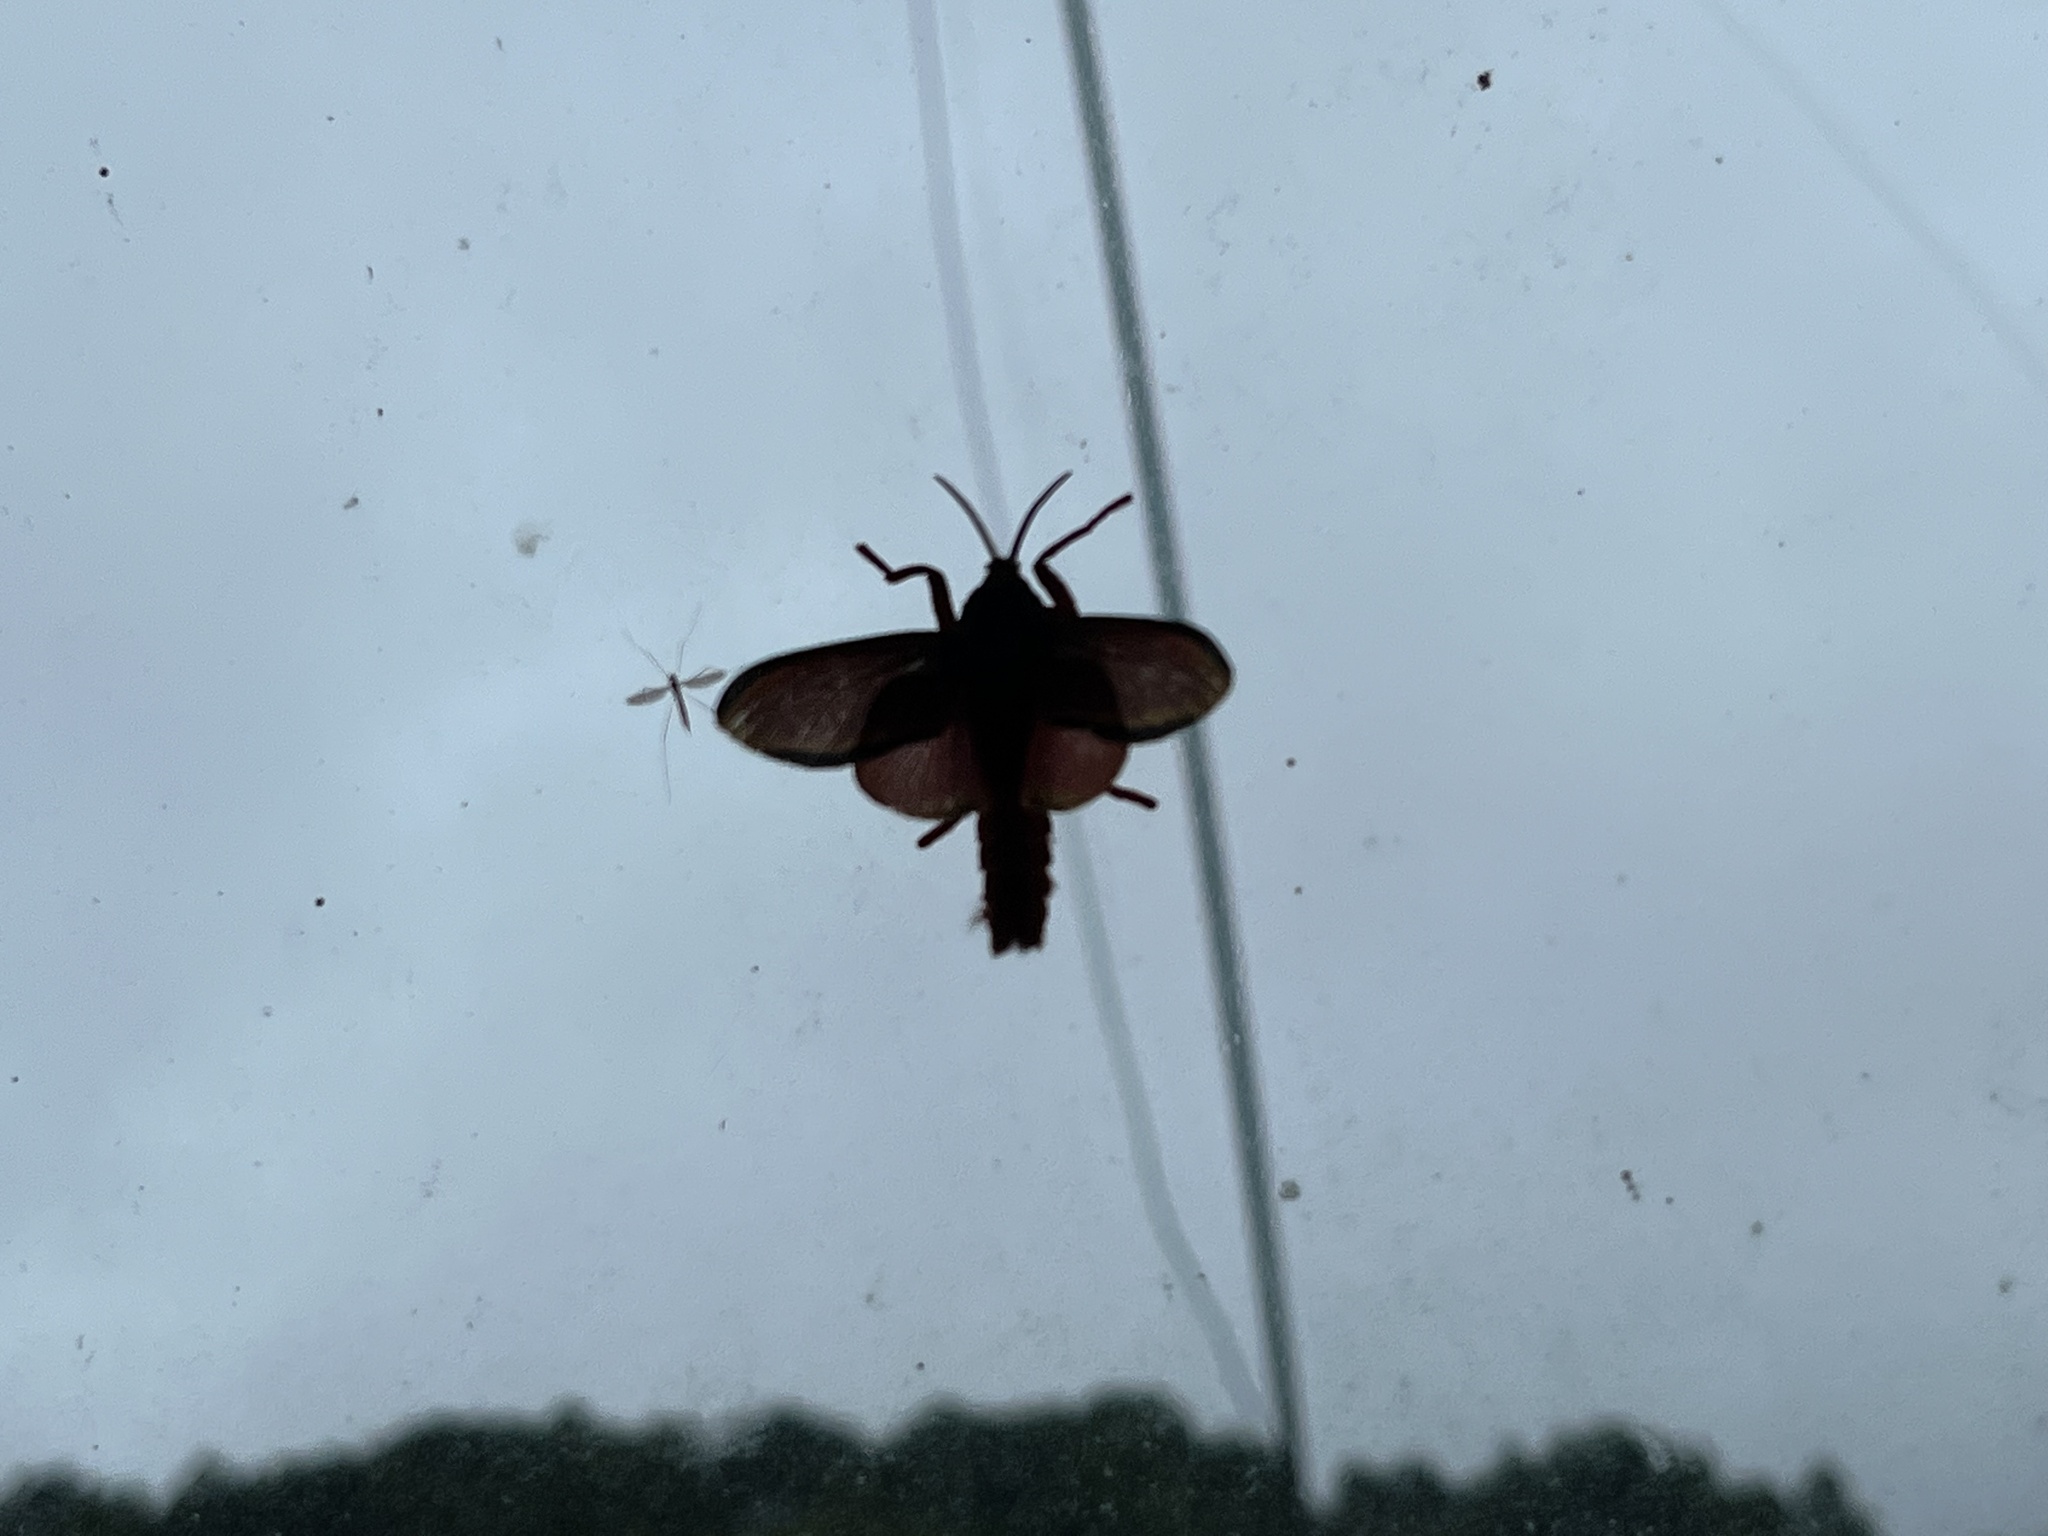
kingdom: Animalia
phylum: Arthropoda
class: Insecta
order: Lepidoptera
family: Megalopygidae
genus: Edebessa
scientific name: Edebessa purens
